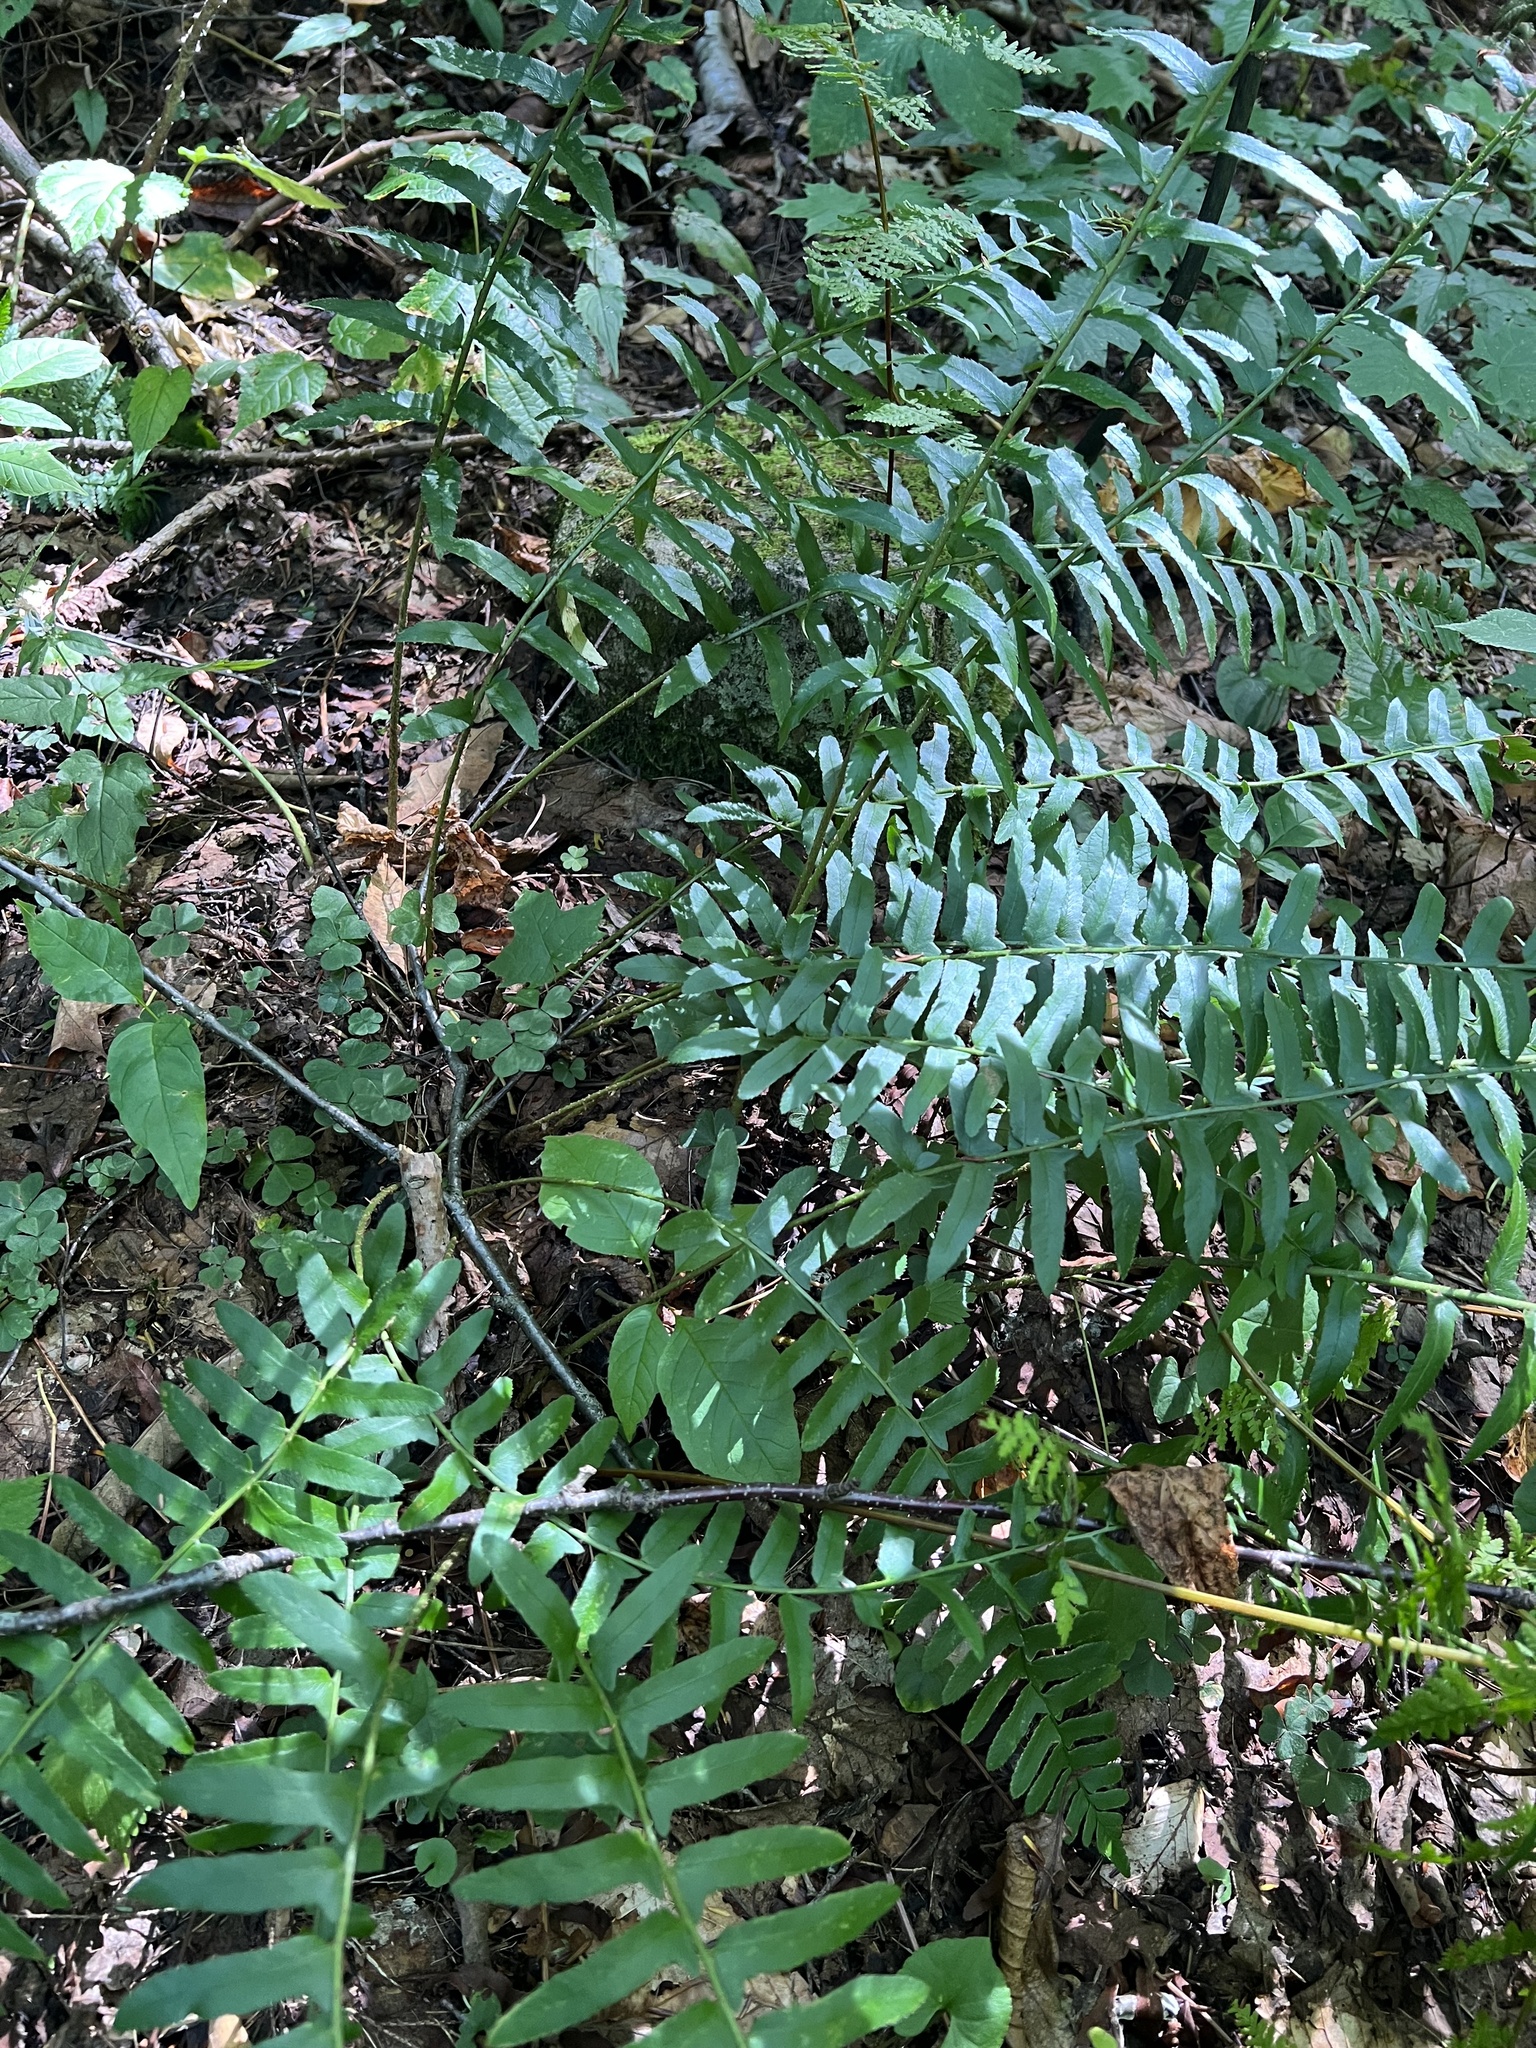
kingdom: Plantae
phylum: Tracheophyta
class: Polypodiopsida
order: Polypodiales
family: Dryopteridaceae
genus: Polystichum
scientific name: Polystichum acrostichoides
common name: Christmas fern
